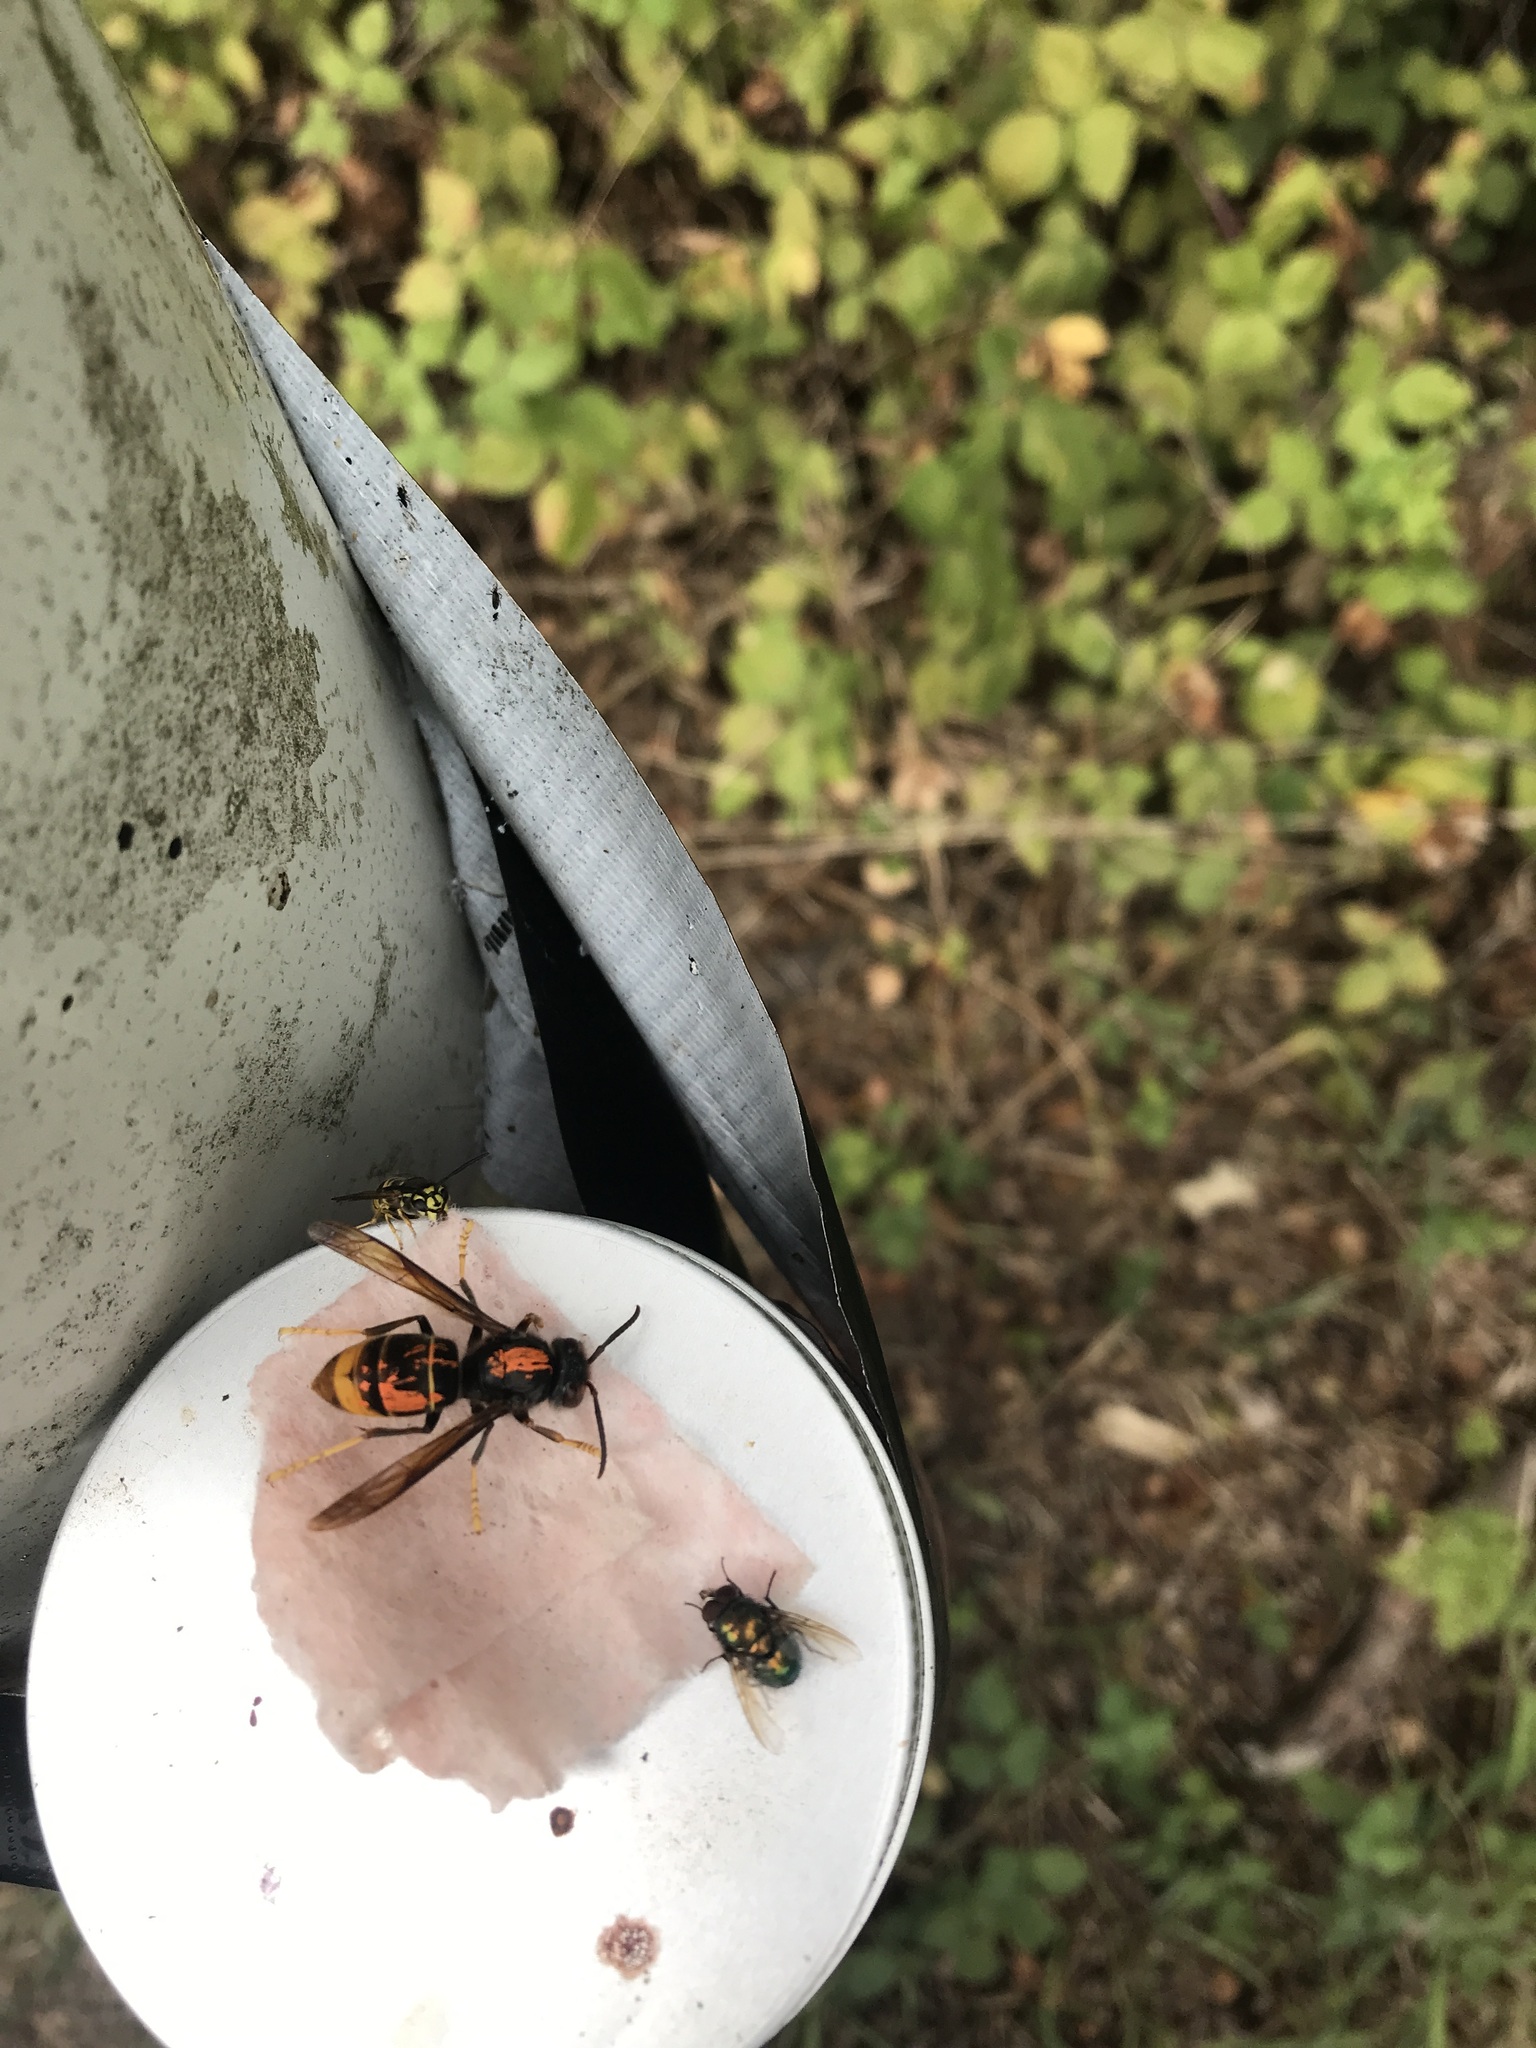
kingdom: Animalia
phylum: Arthropoda
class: Insecta
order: Hymenoptera
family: Vespidae
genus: Vespa
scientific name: Vespa velutina
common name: Asian hornet
